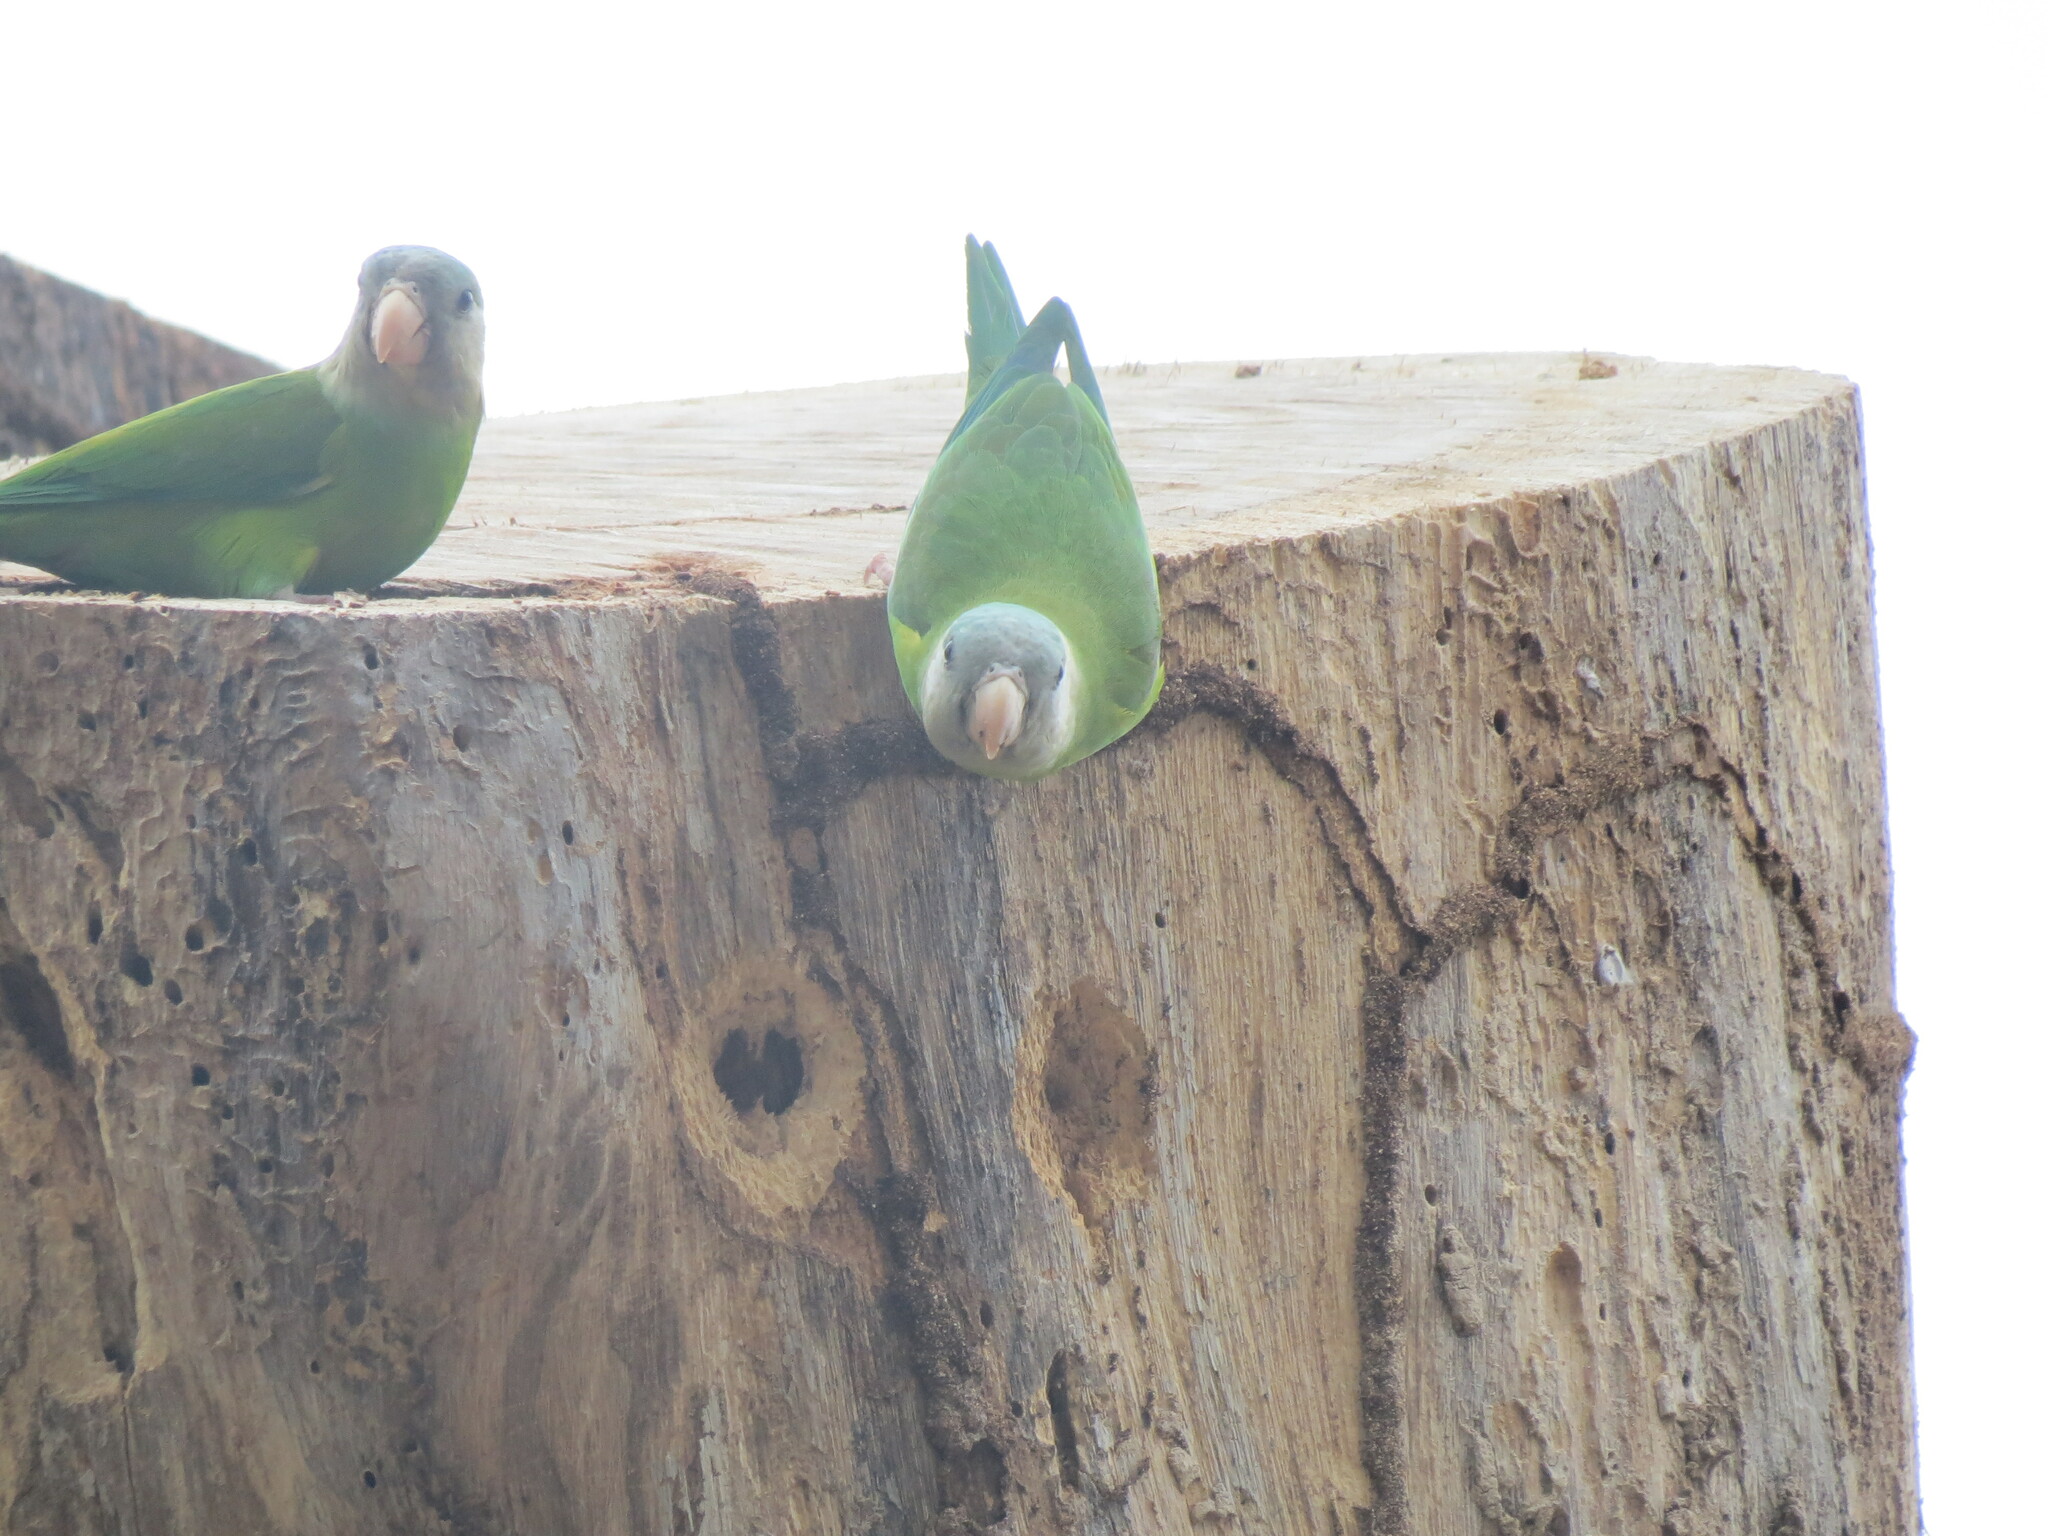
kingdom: Animalia
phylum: Chordata
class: Aves
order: Psittaciformes
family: Psittacidae
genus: Brotogeris
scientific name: Brotogeris pyrrhoptera
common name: Grey-cheeked parakeet
